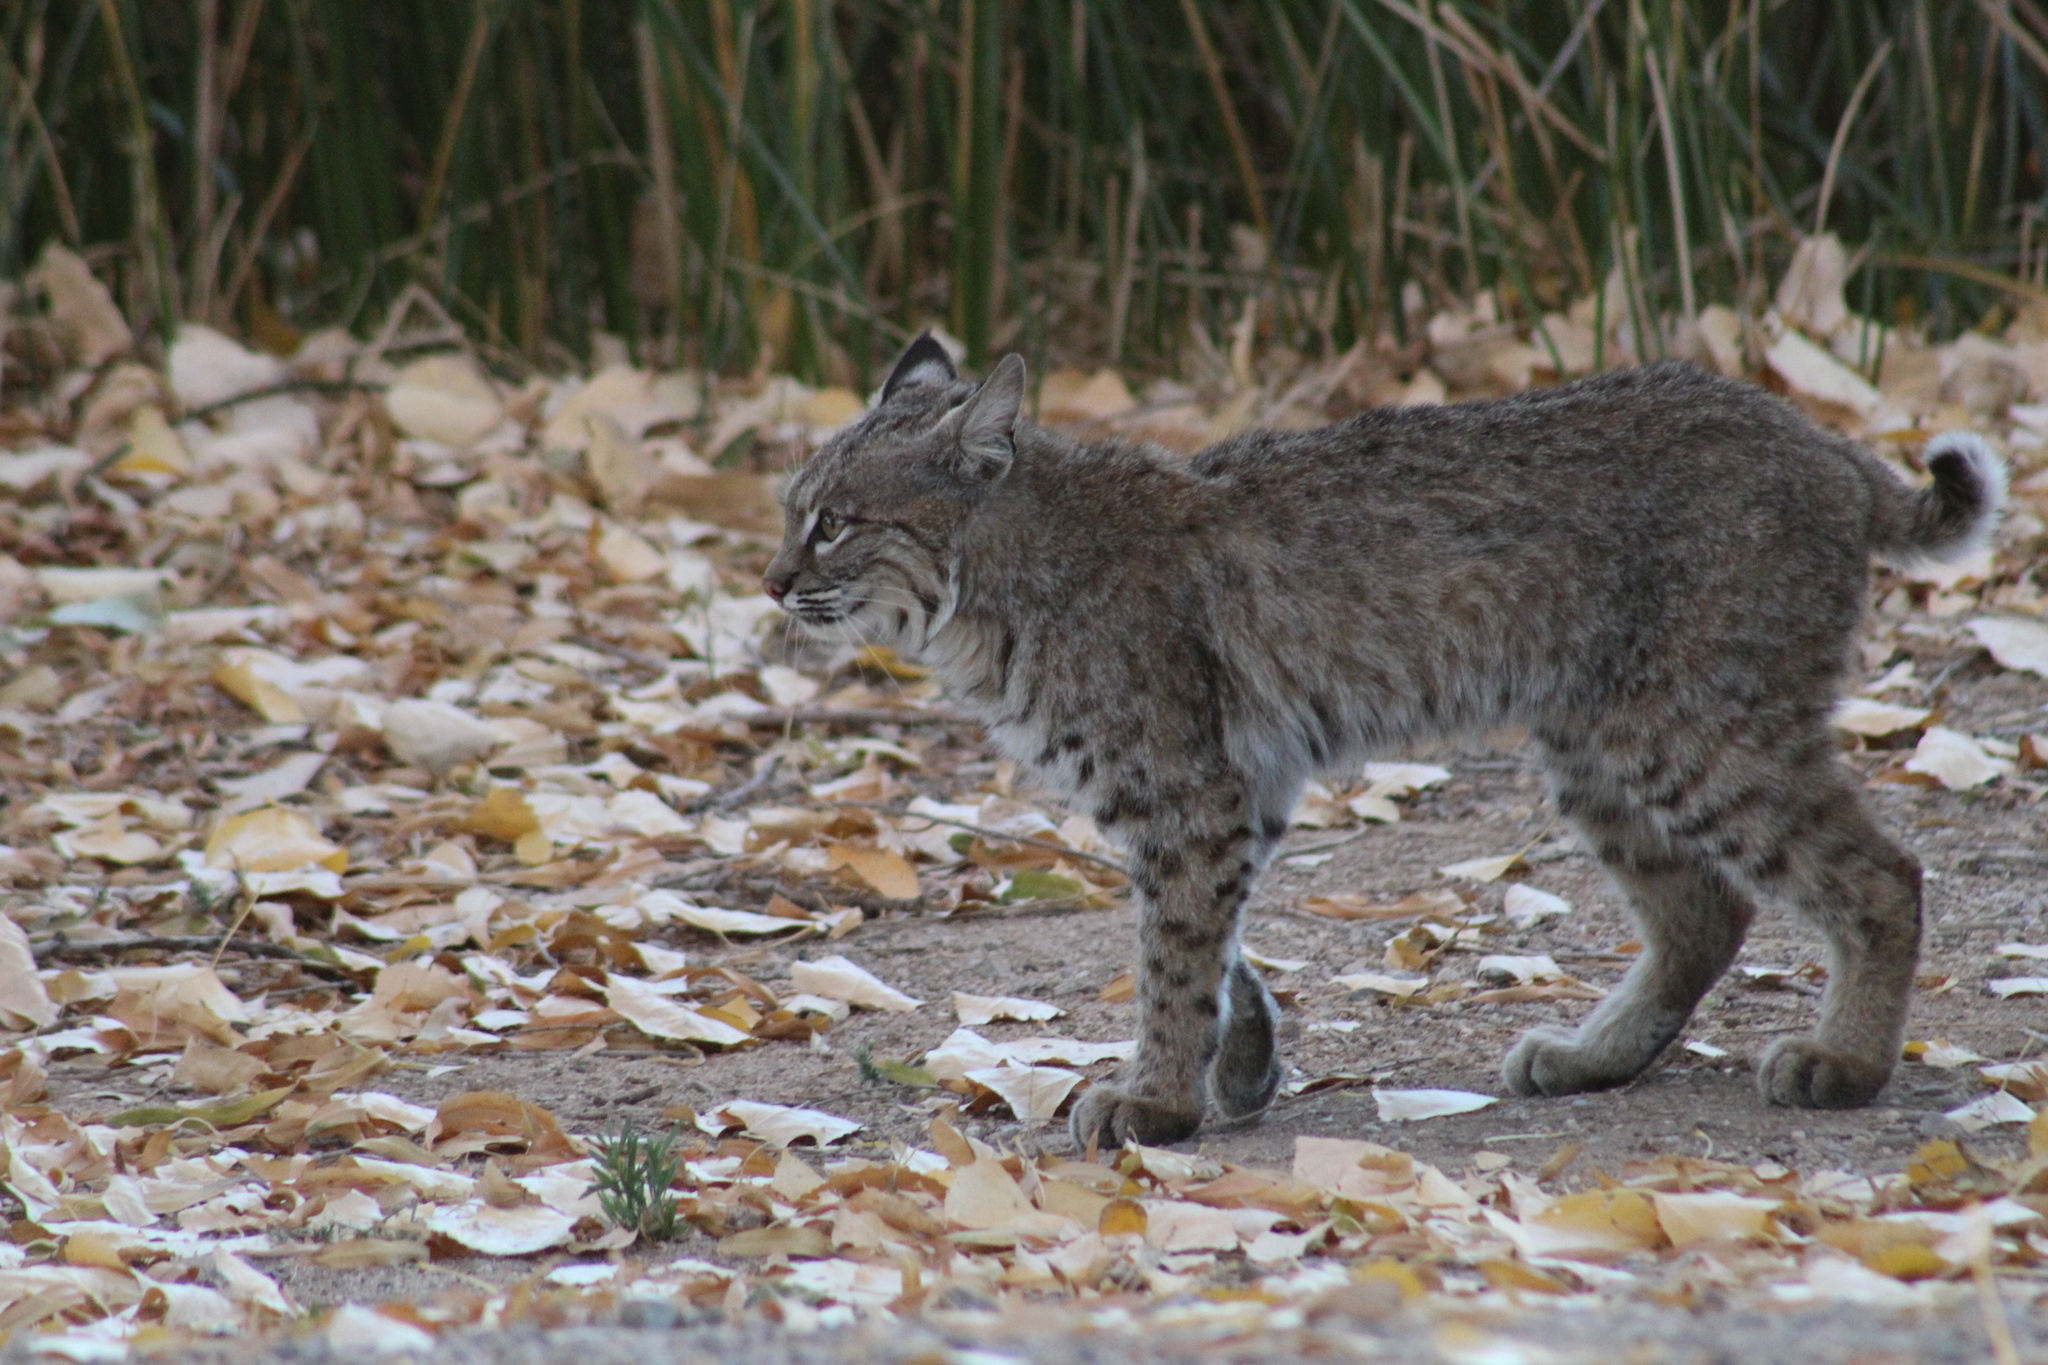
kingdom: Animalia
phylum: Chordata
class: Mammalia
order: Carnivora
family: Felidae
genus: Lynx
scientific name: Lynx rufus
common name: Bobcat
